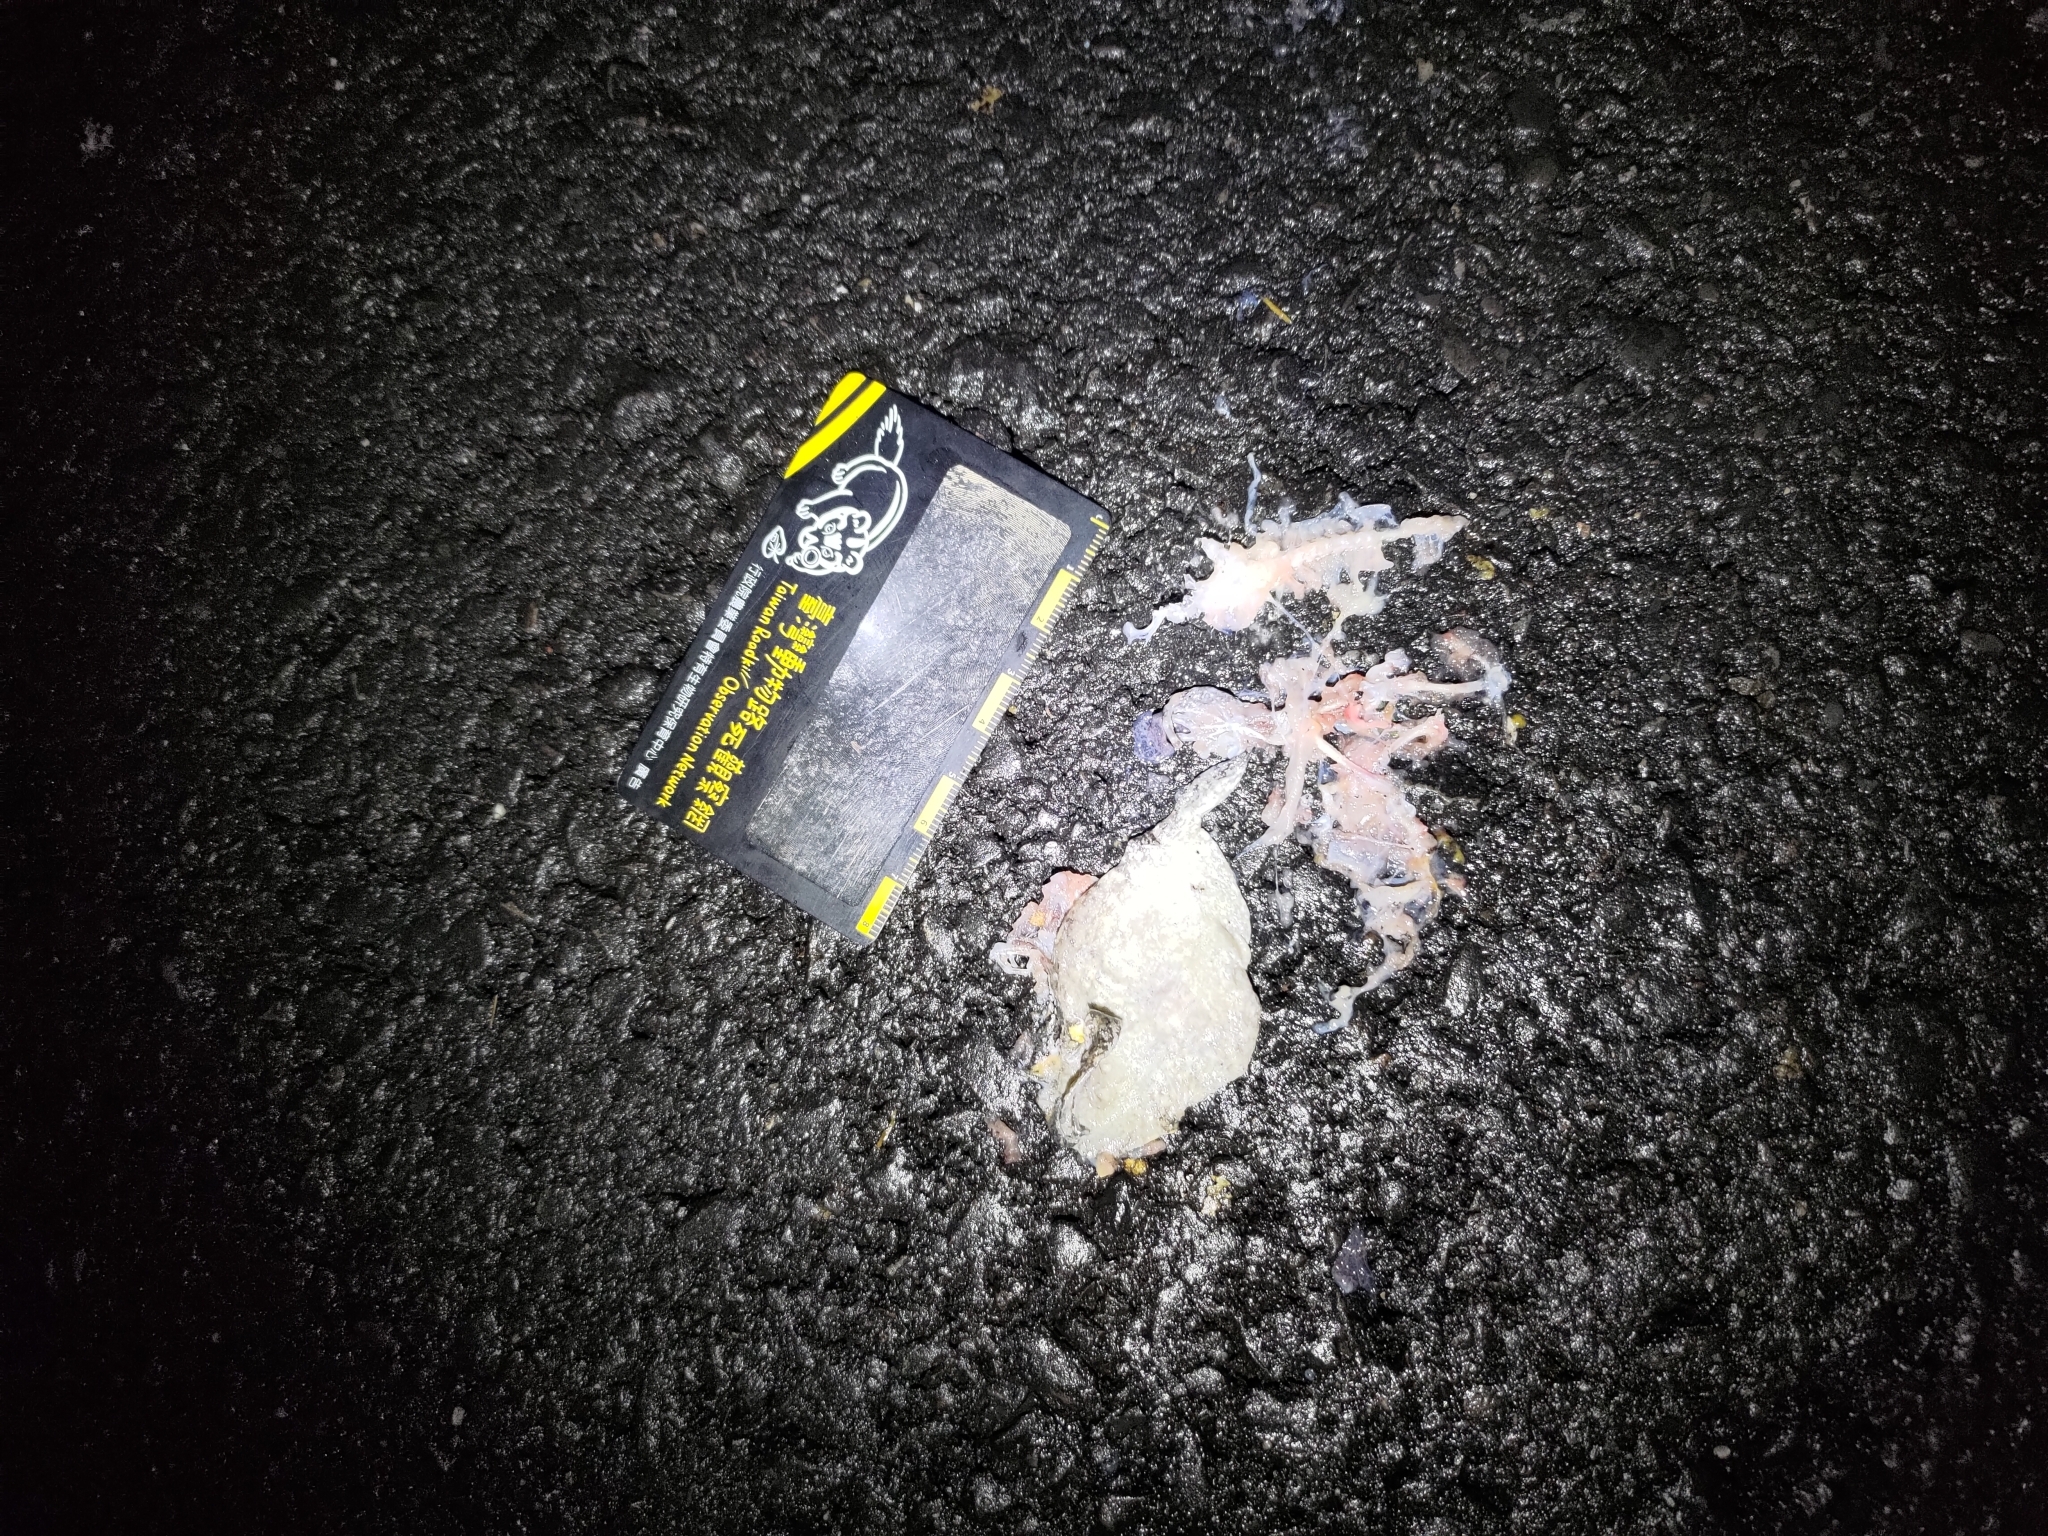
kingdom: Animalia
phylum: Chordata
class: Amphibia
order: Anura
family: Microhylidae
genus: Kaloula
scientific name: Kaloula pulchra
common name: Common,banded bullfrog
